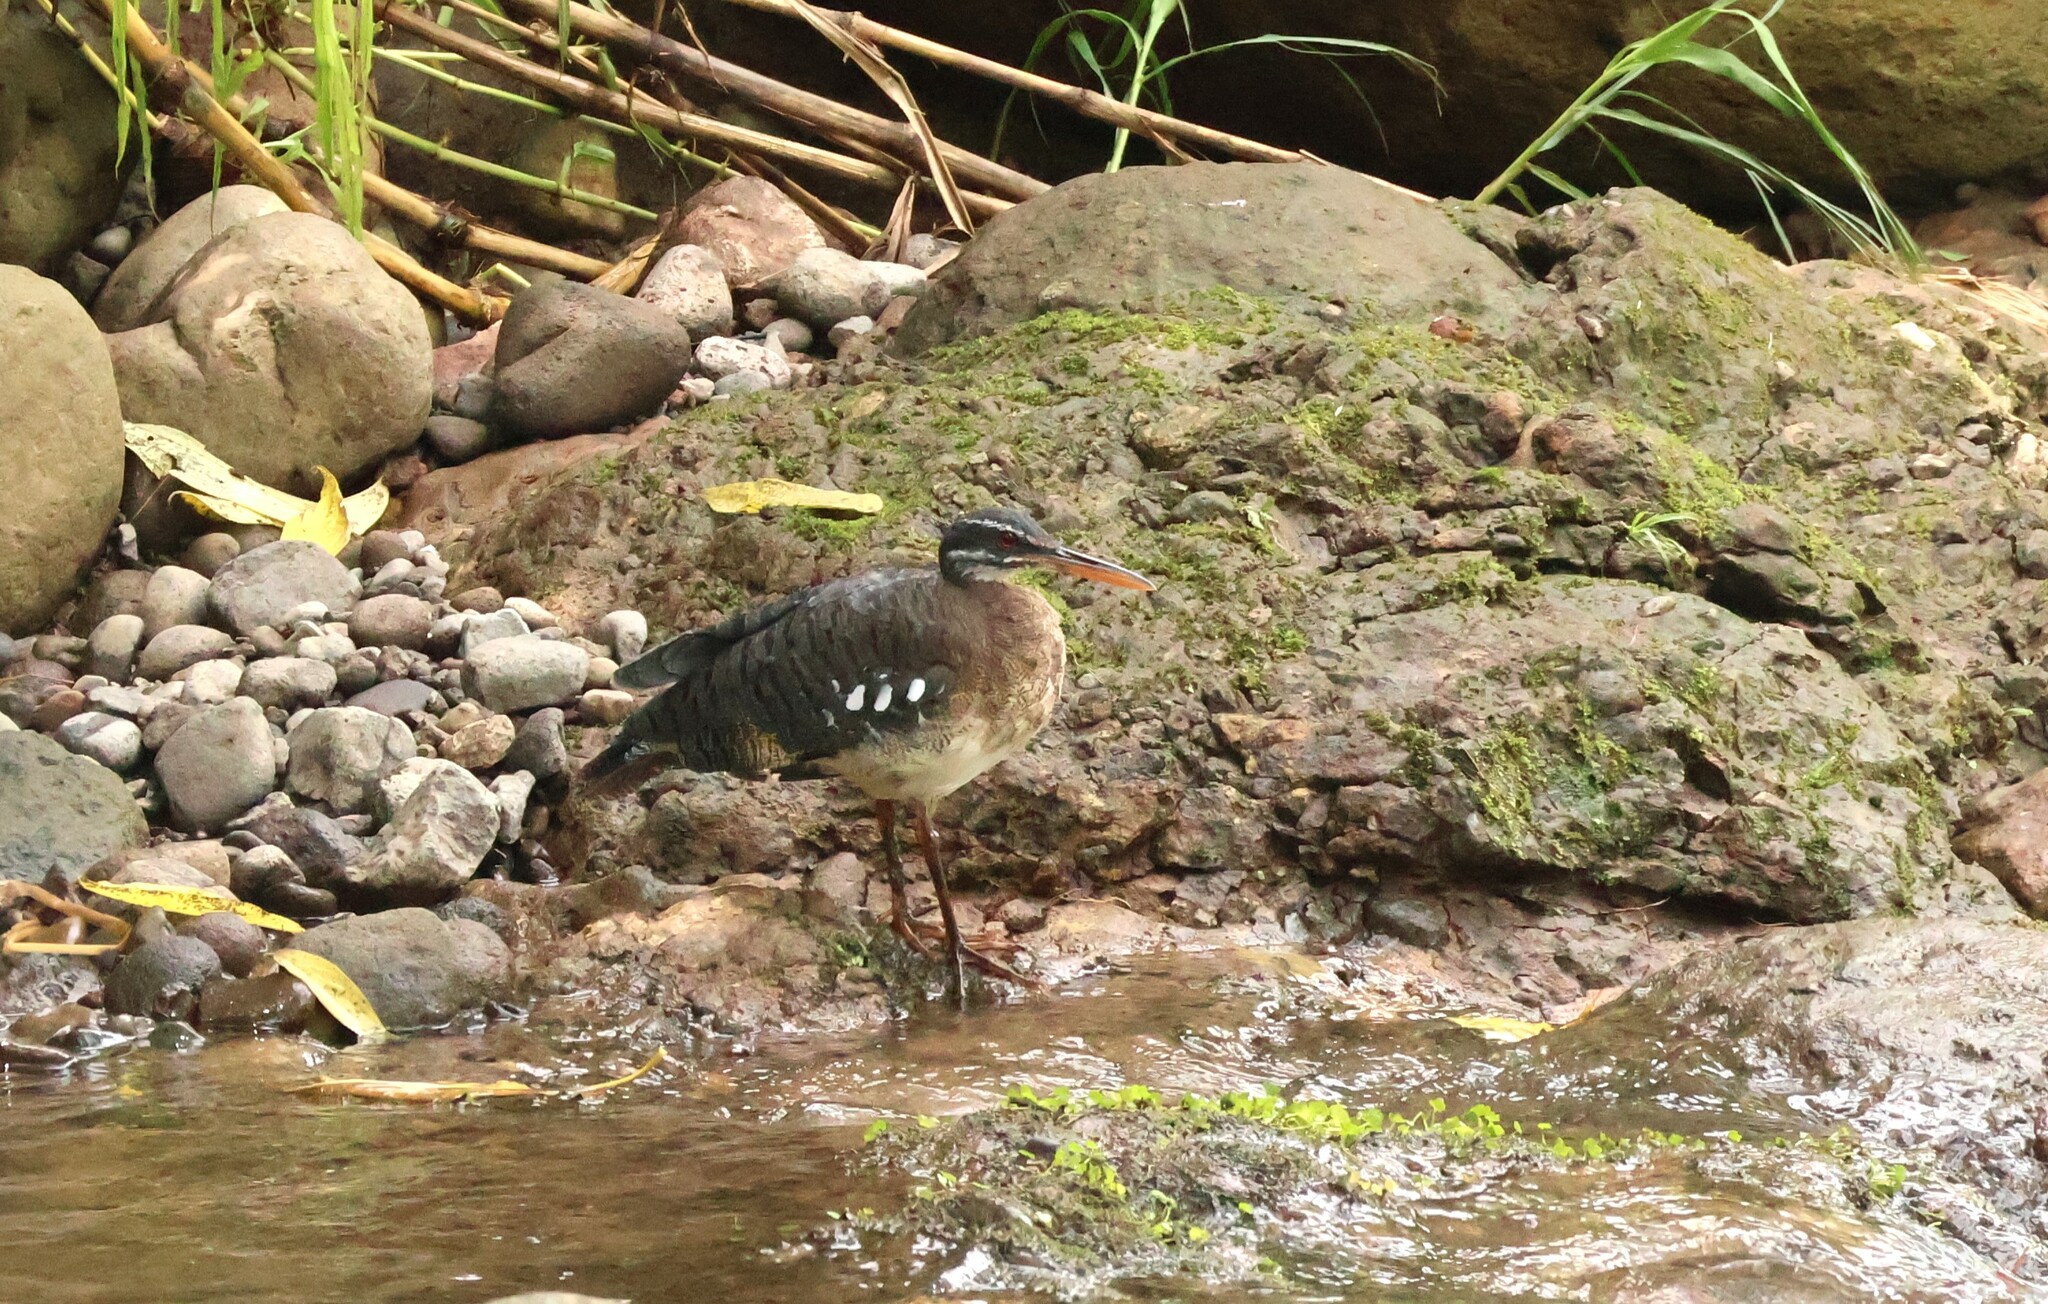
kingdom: Animalia
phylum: Chordata
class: Aves
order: Eurypygiformes
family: Eurypygidae
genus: Eurypyga
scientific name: Eurypyga helias
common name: Sunbittern
